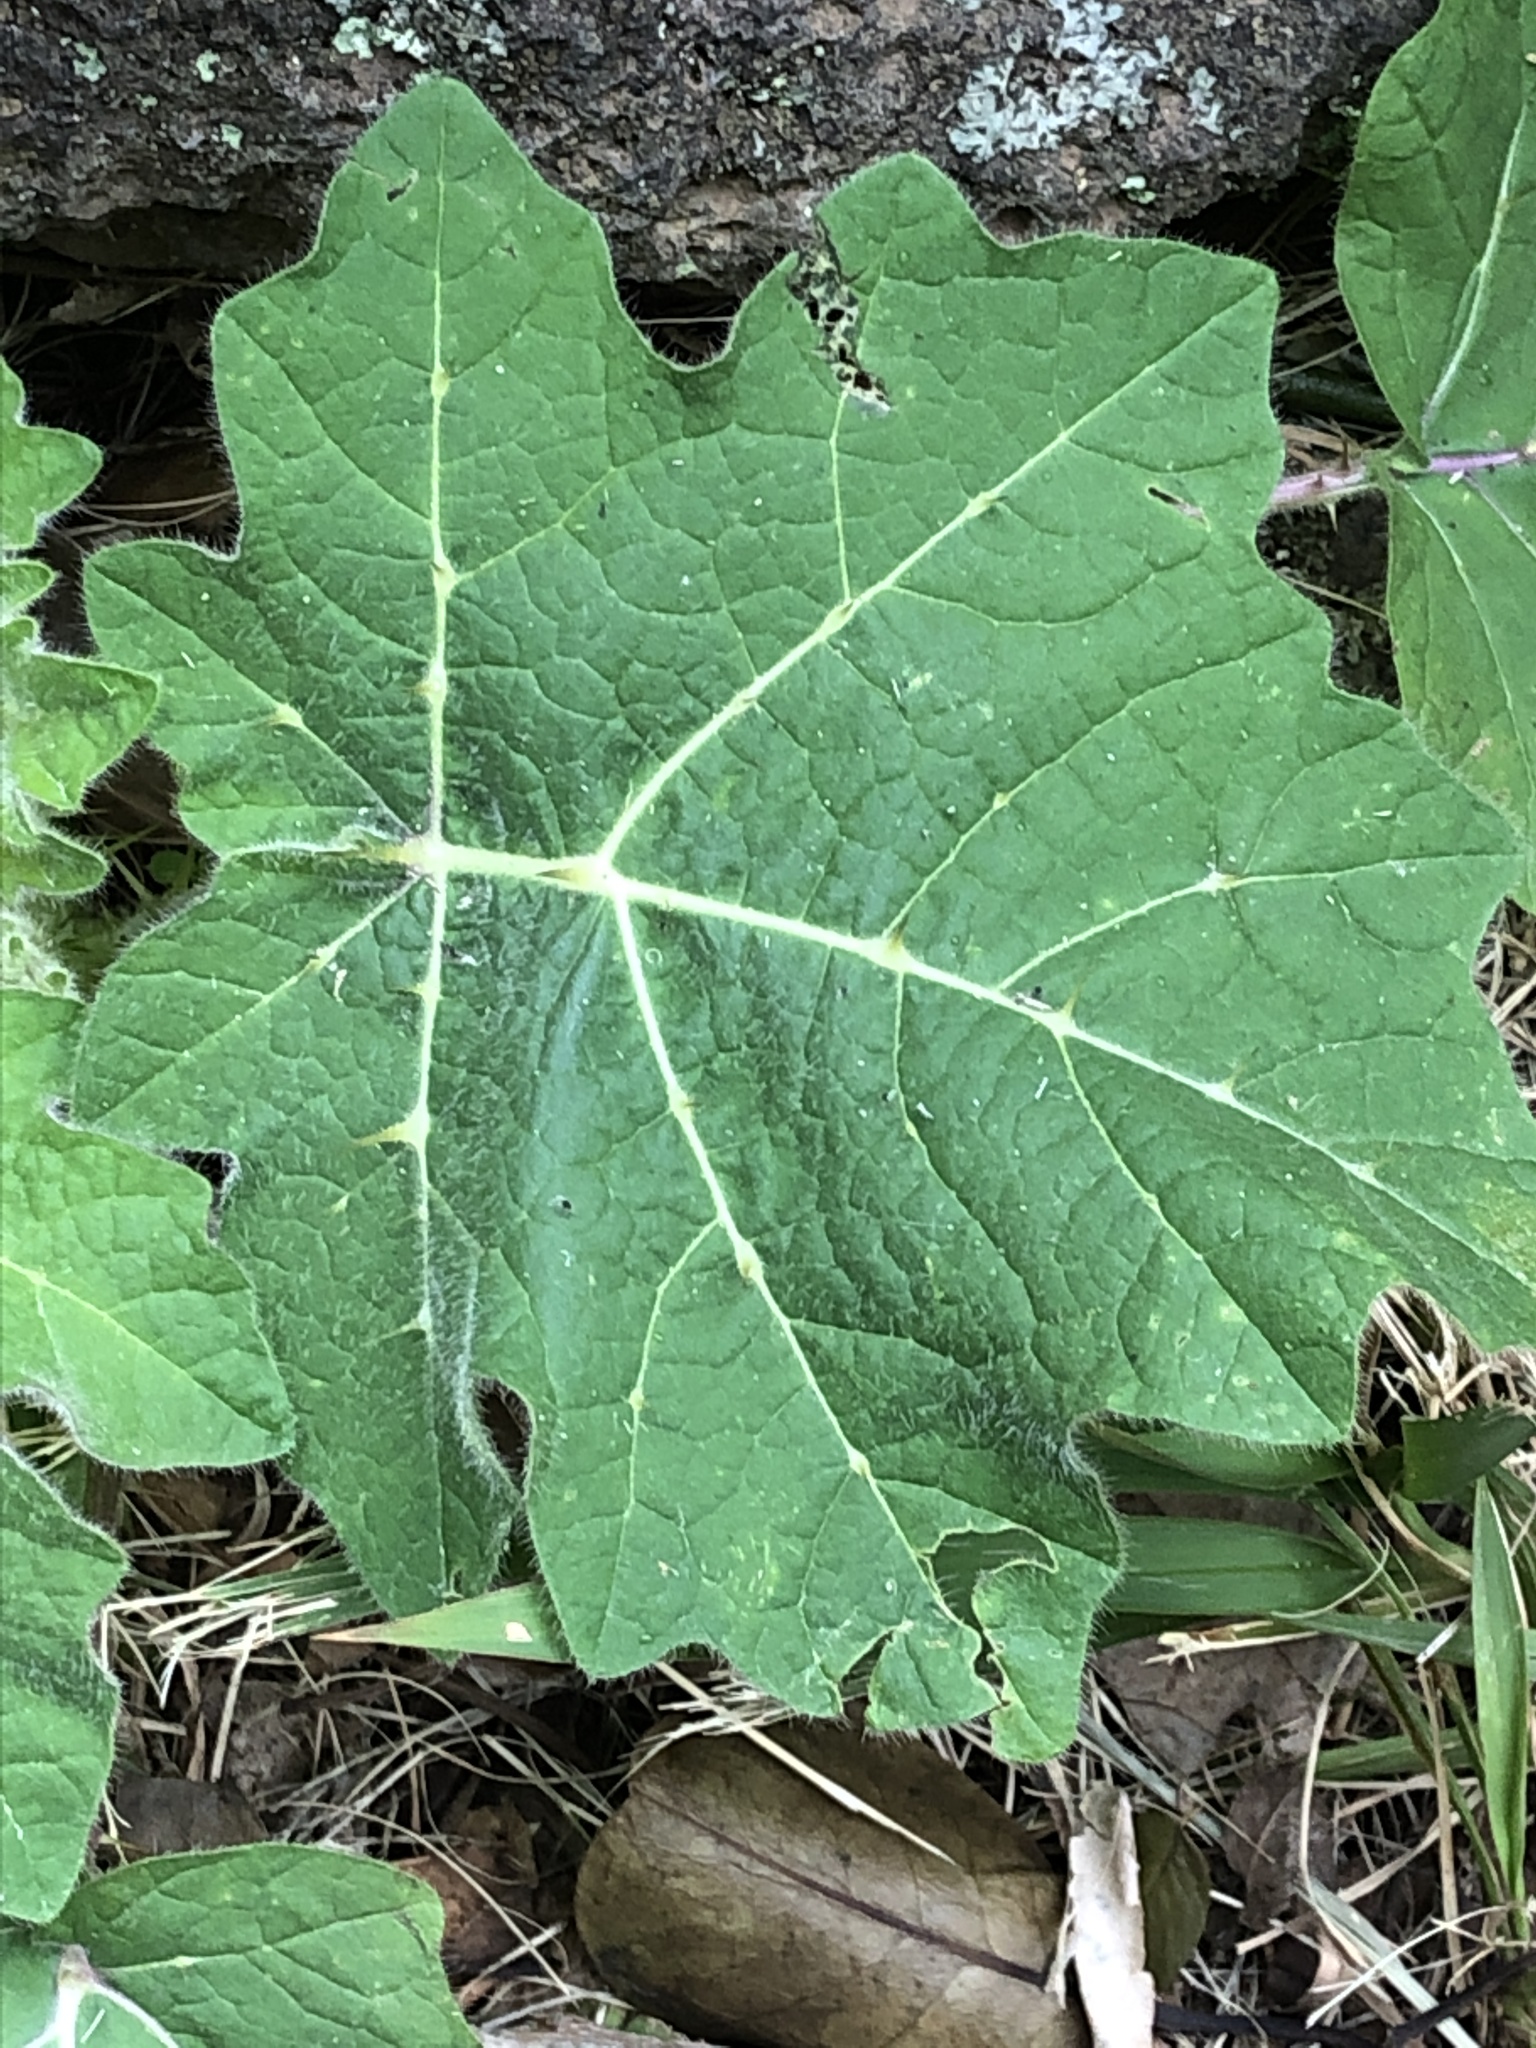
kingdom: Plantae
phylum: Tracheophyta
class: Magnoliopsida
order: Solanales
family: Solanaceae
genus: Solanum
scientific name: Solanum viarum
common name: Tropical soda apple
